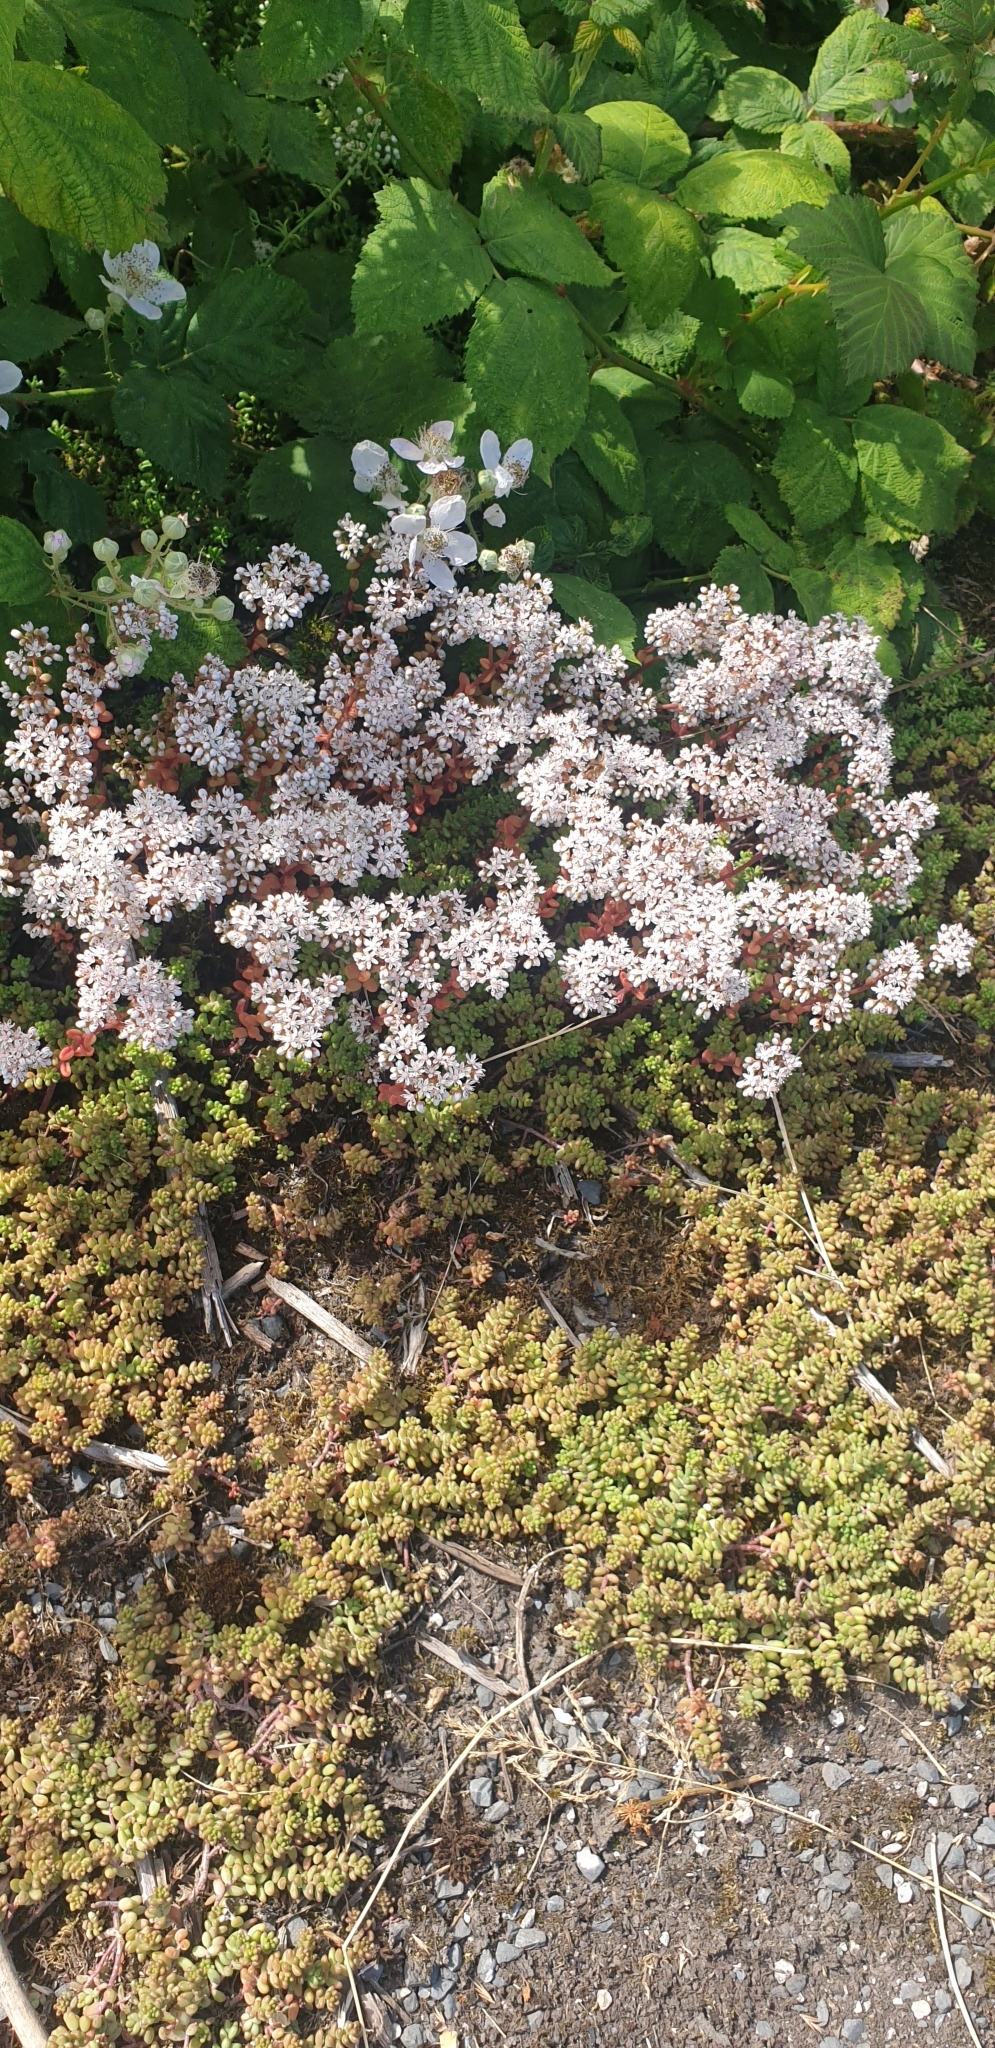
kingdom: Plantae
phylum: Tracheophyta
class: Magnoliopsida
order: Saxifragales
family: Crassulaceae
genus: Sedum
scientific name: Sedum album
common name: White stonecrop
